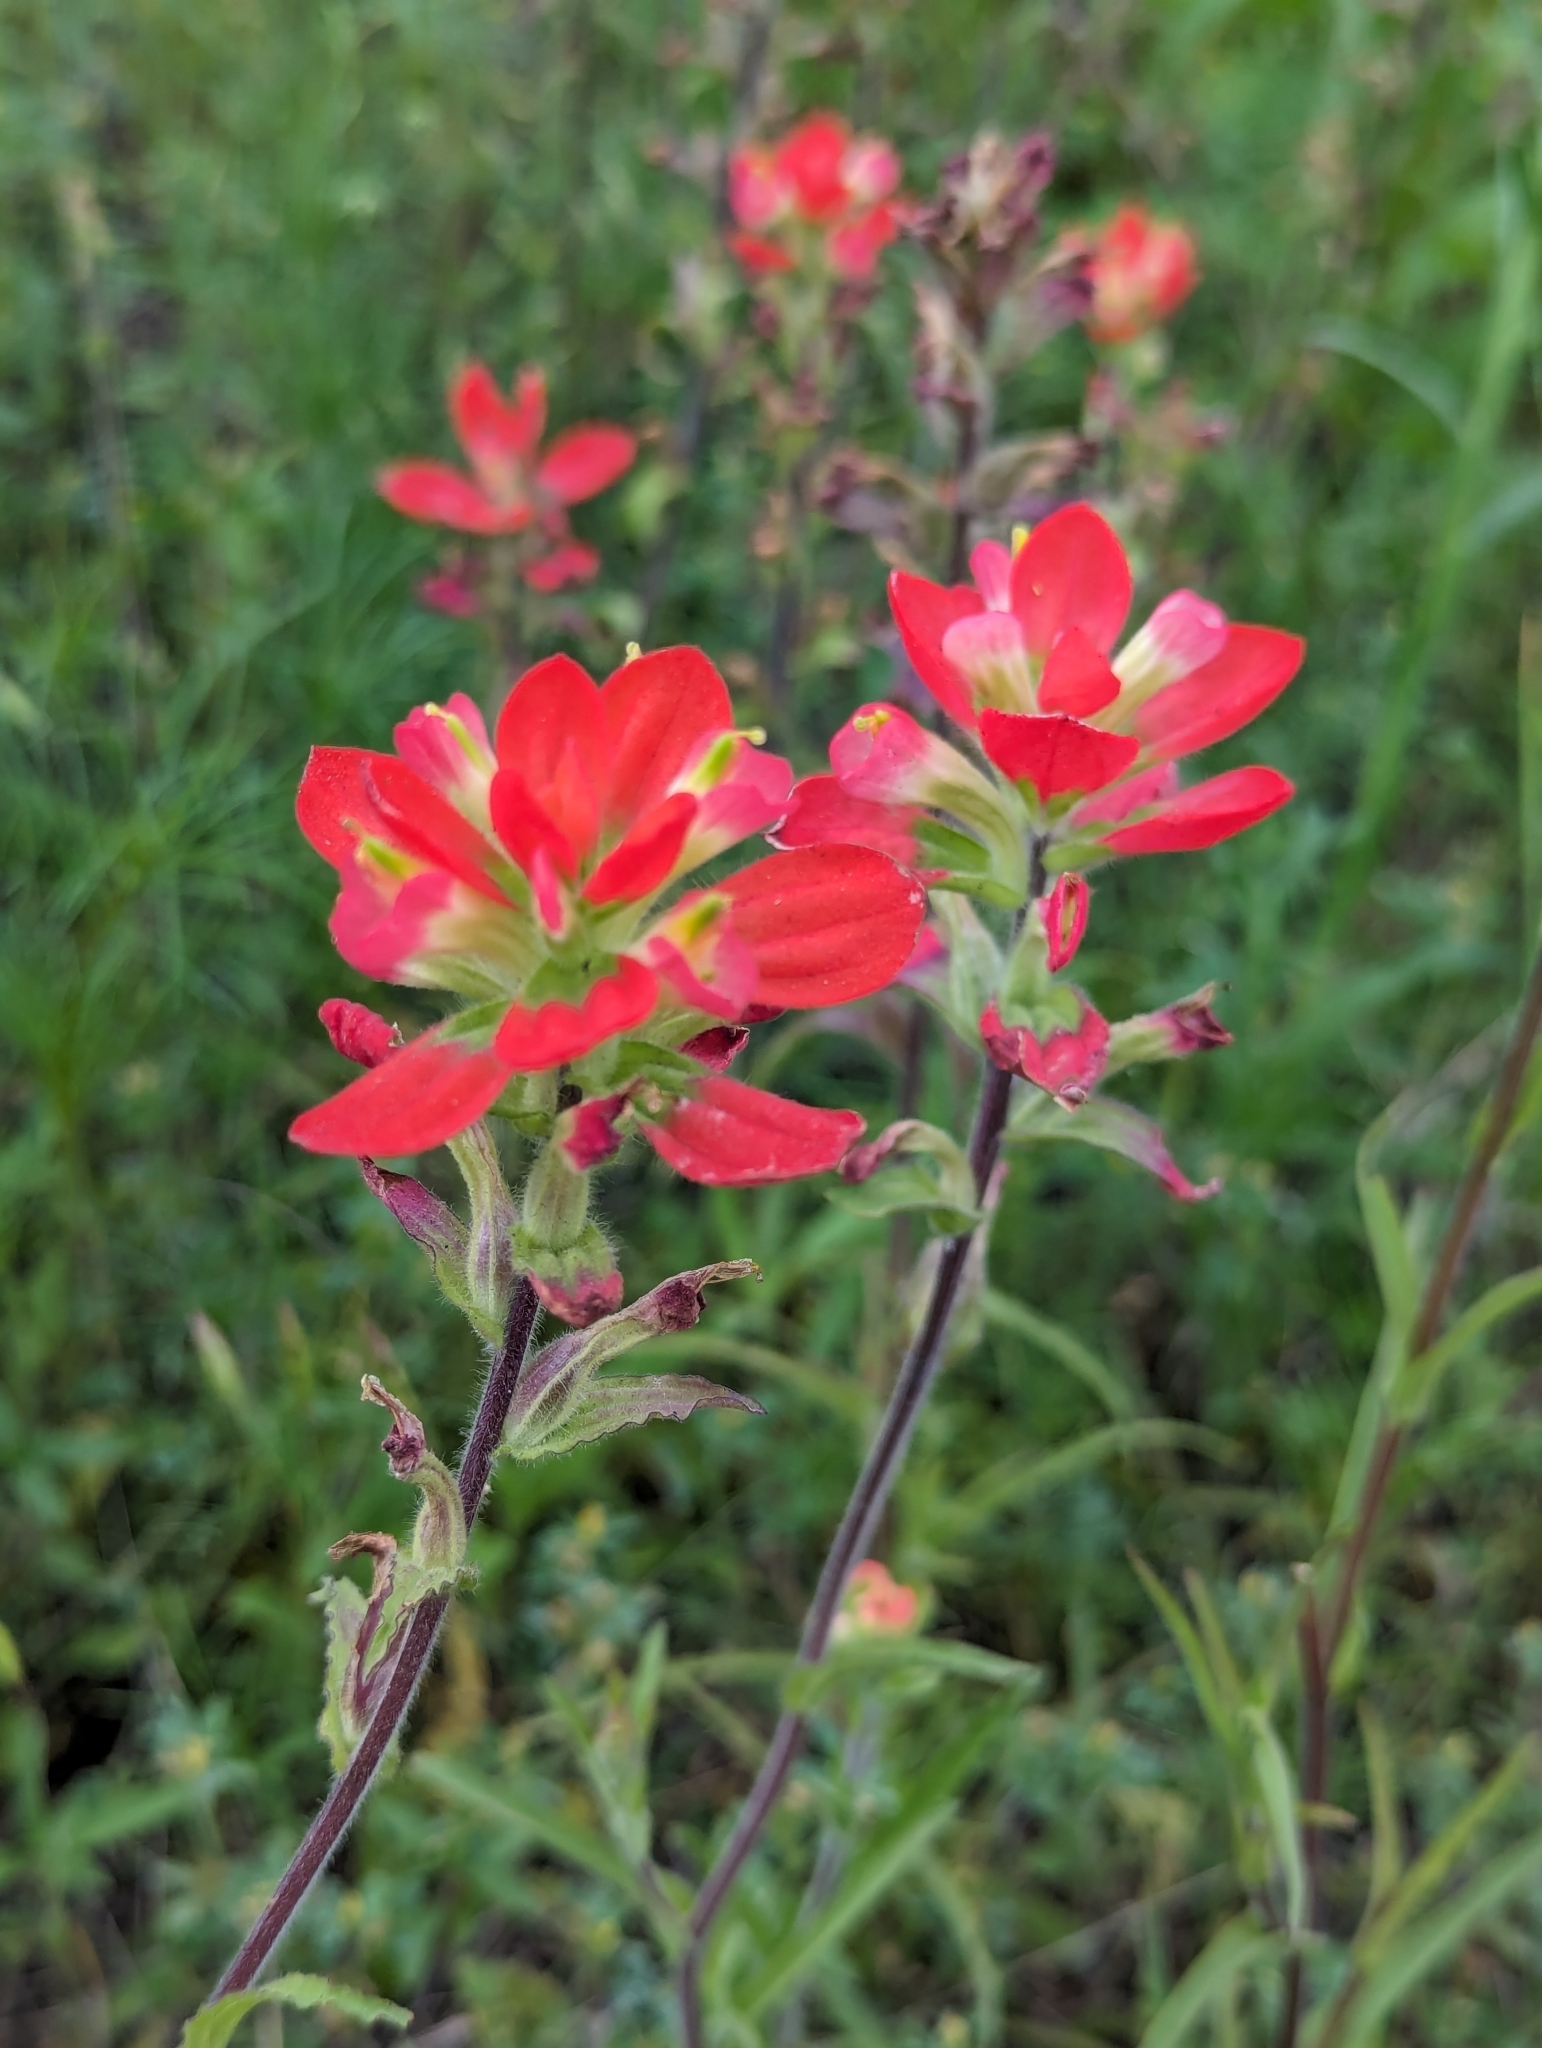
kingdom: Plantae
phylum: Tracheophyta
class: Magnoliopsida
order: Lamiales
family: Orobanchaceae
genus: Castilleja
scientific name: Castilleja indivisa
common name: Texas paintbrush
